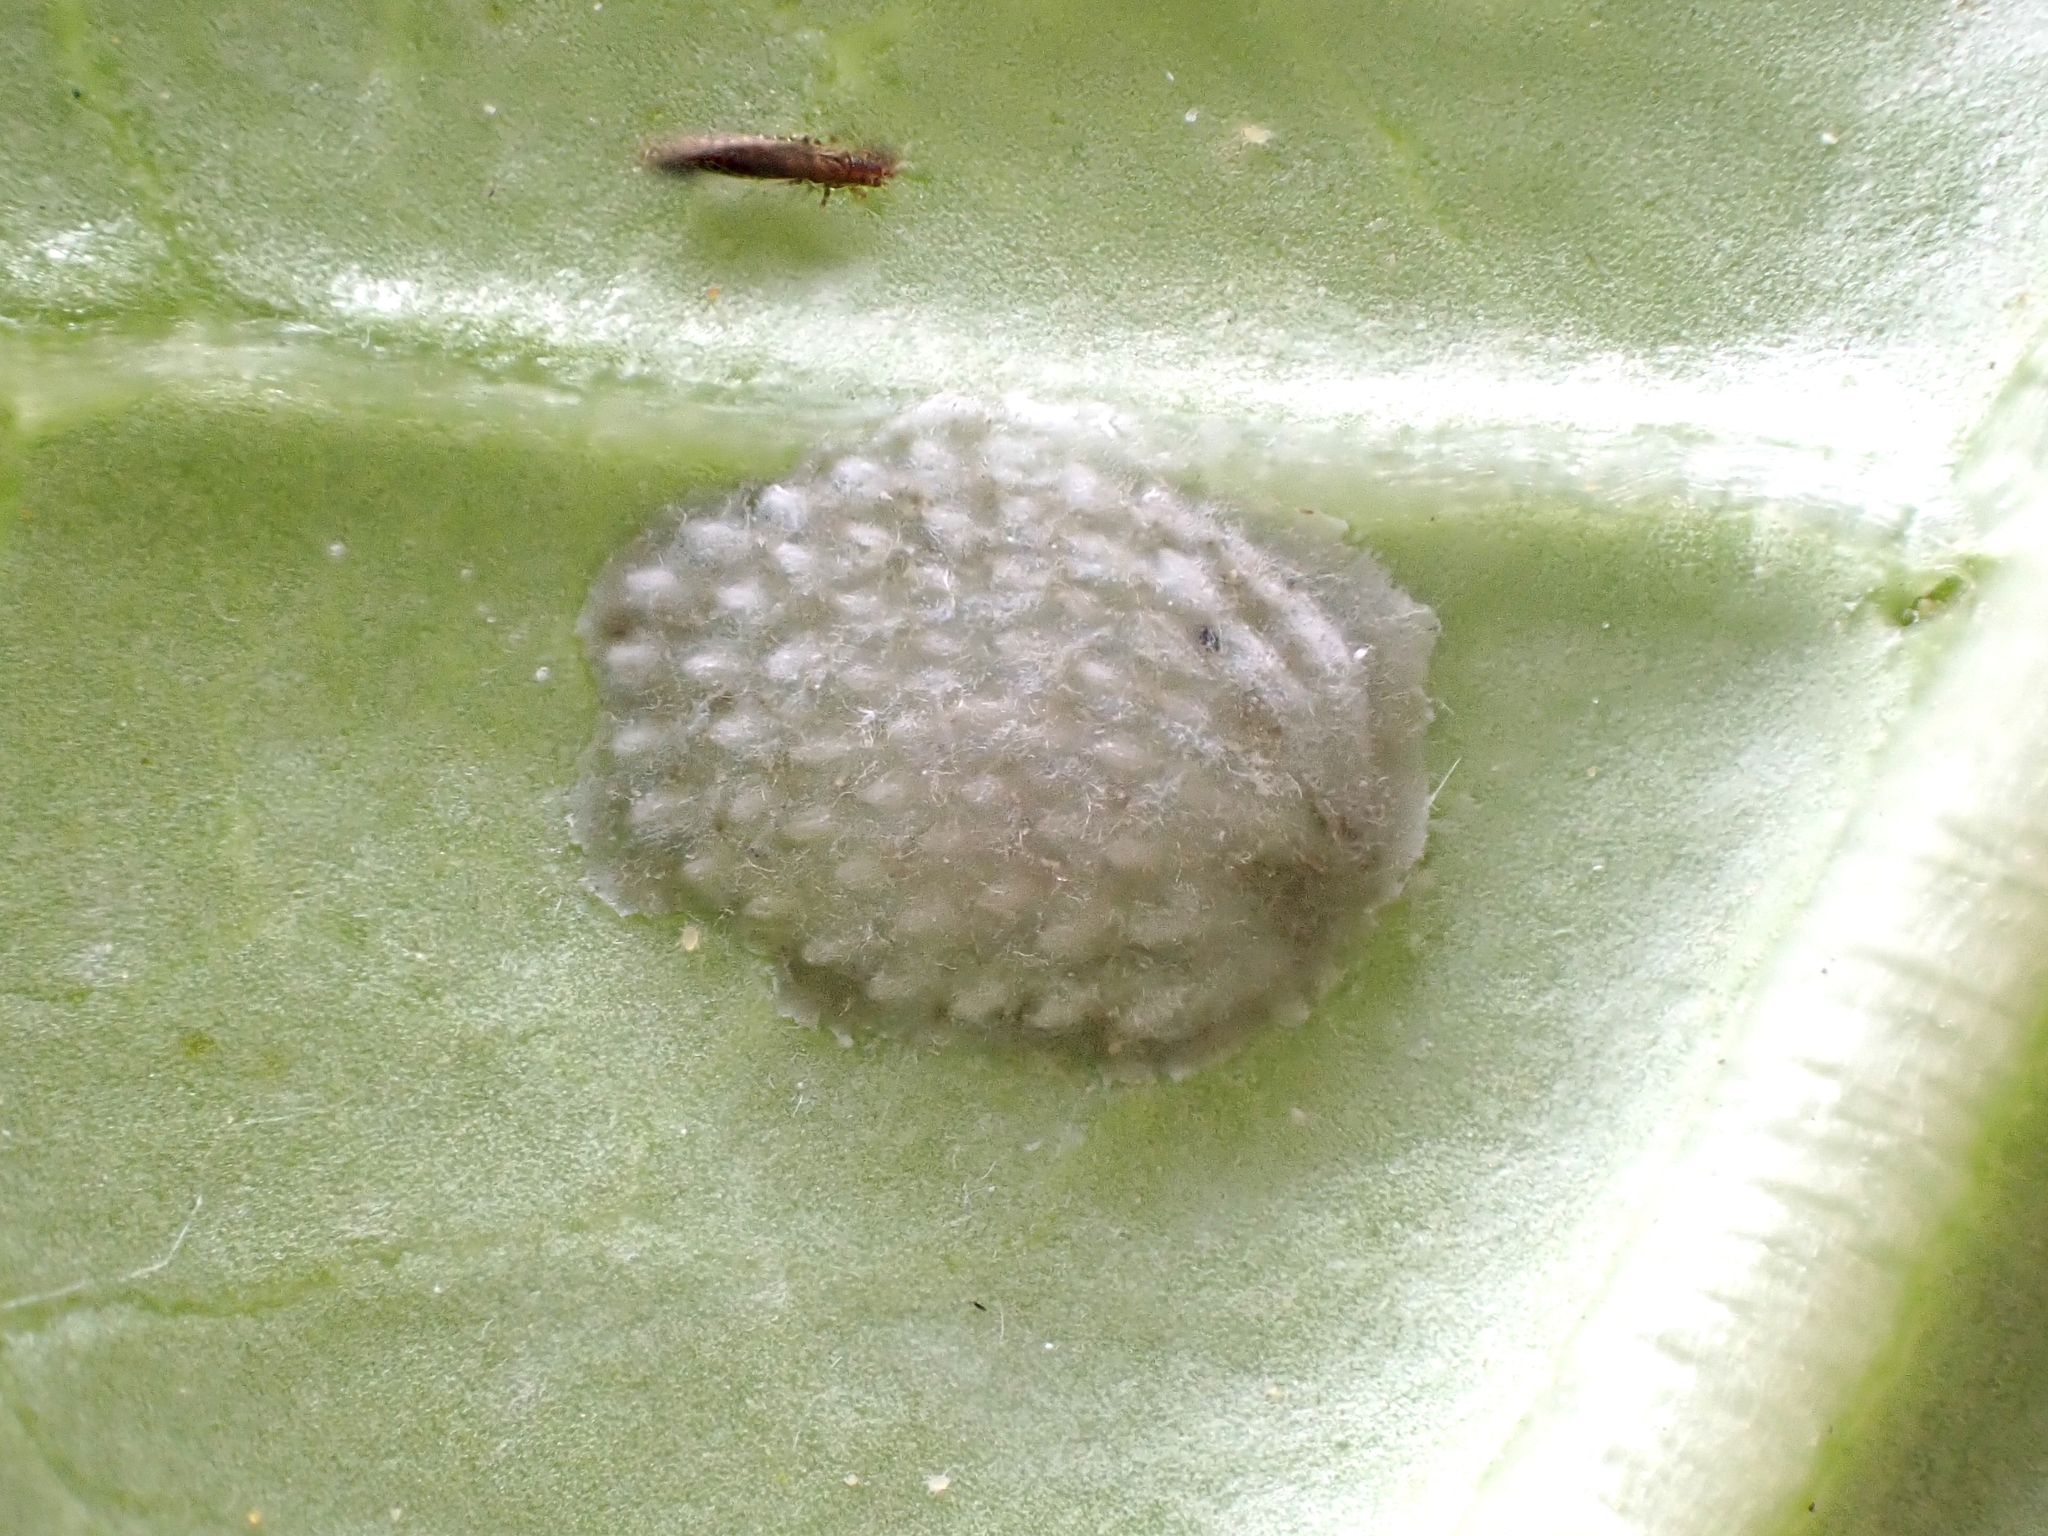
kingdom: Animalia
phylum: Arthropoda
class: Insecta
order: Hemiptera
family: Flatidae
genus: Siphanta
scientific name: Siphanta acuta
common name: Torpedo bug
